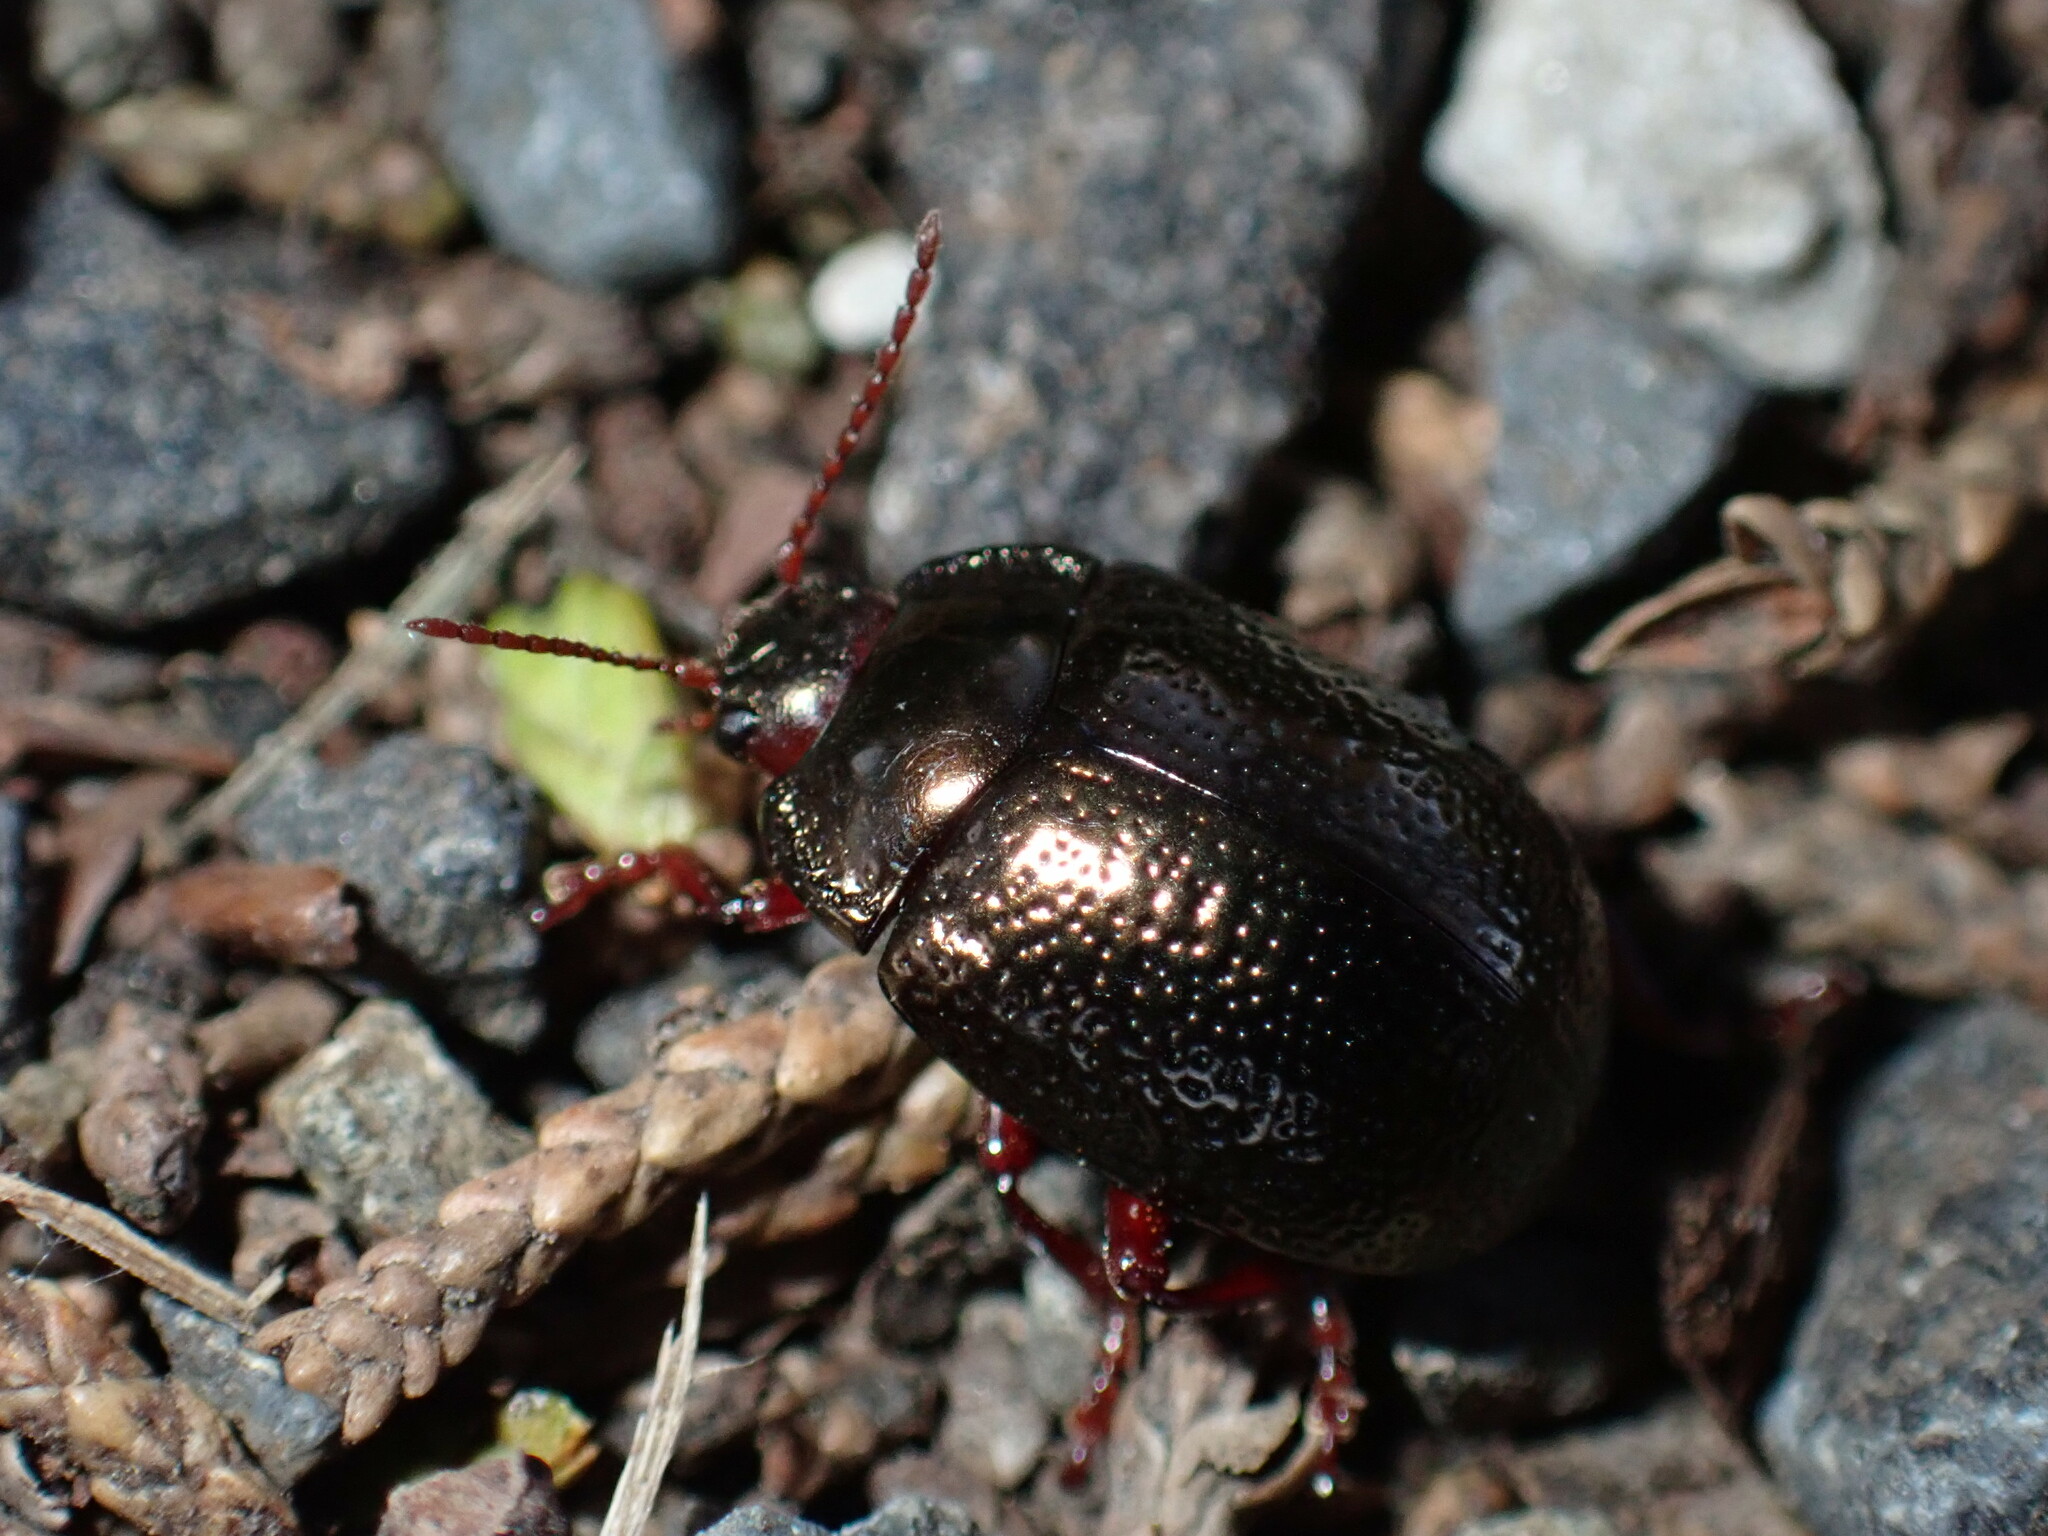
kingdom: Animalia
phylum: Arthropoda
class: Insecta
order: Coleoptera
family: Chrysomelidae
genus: Chrysolina
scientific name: Chrysolina bankii
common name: Leaf beetle
